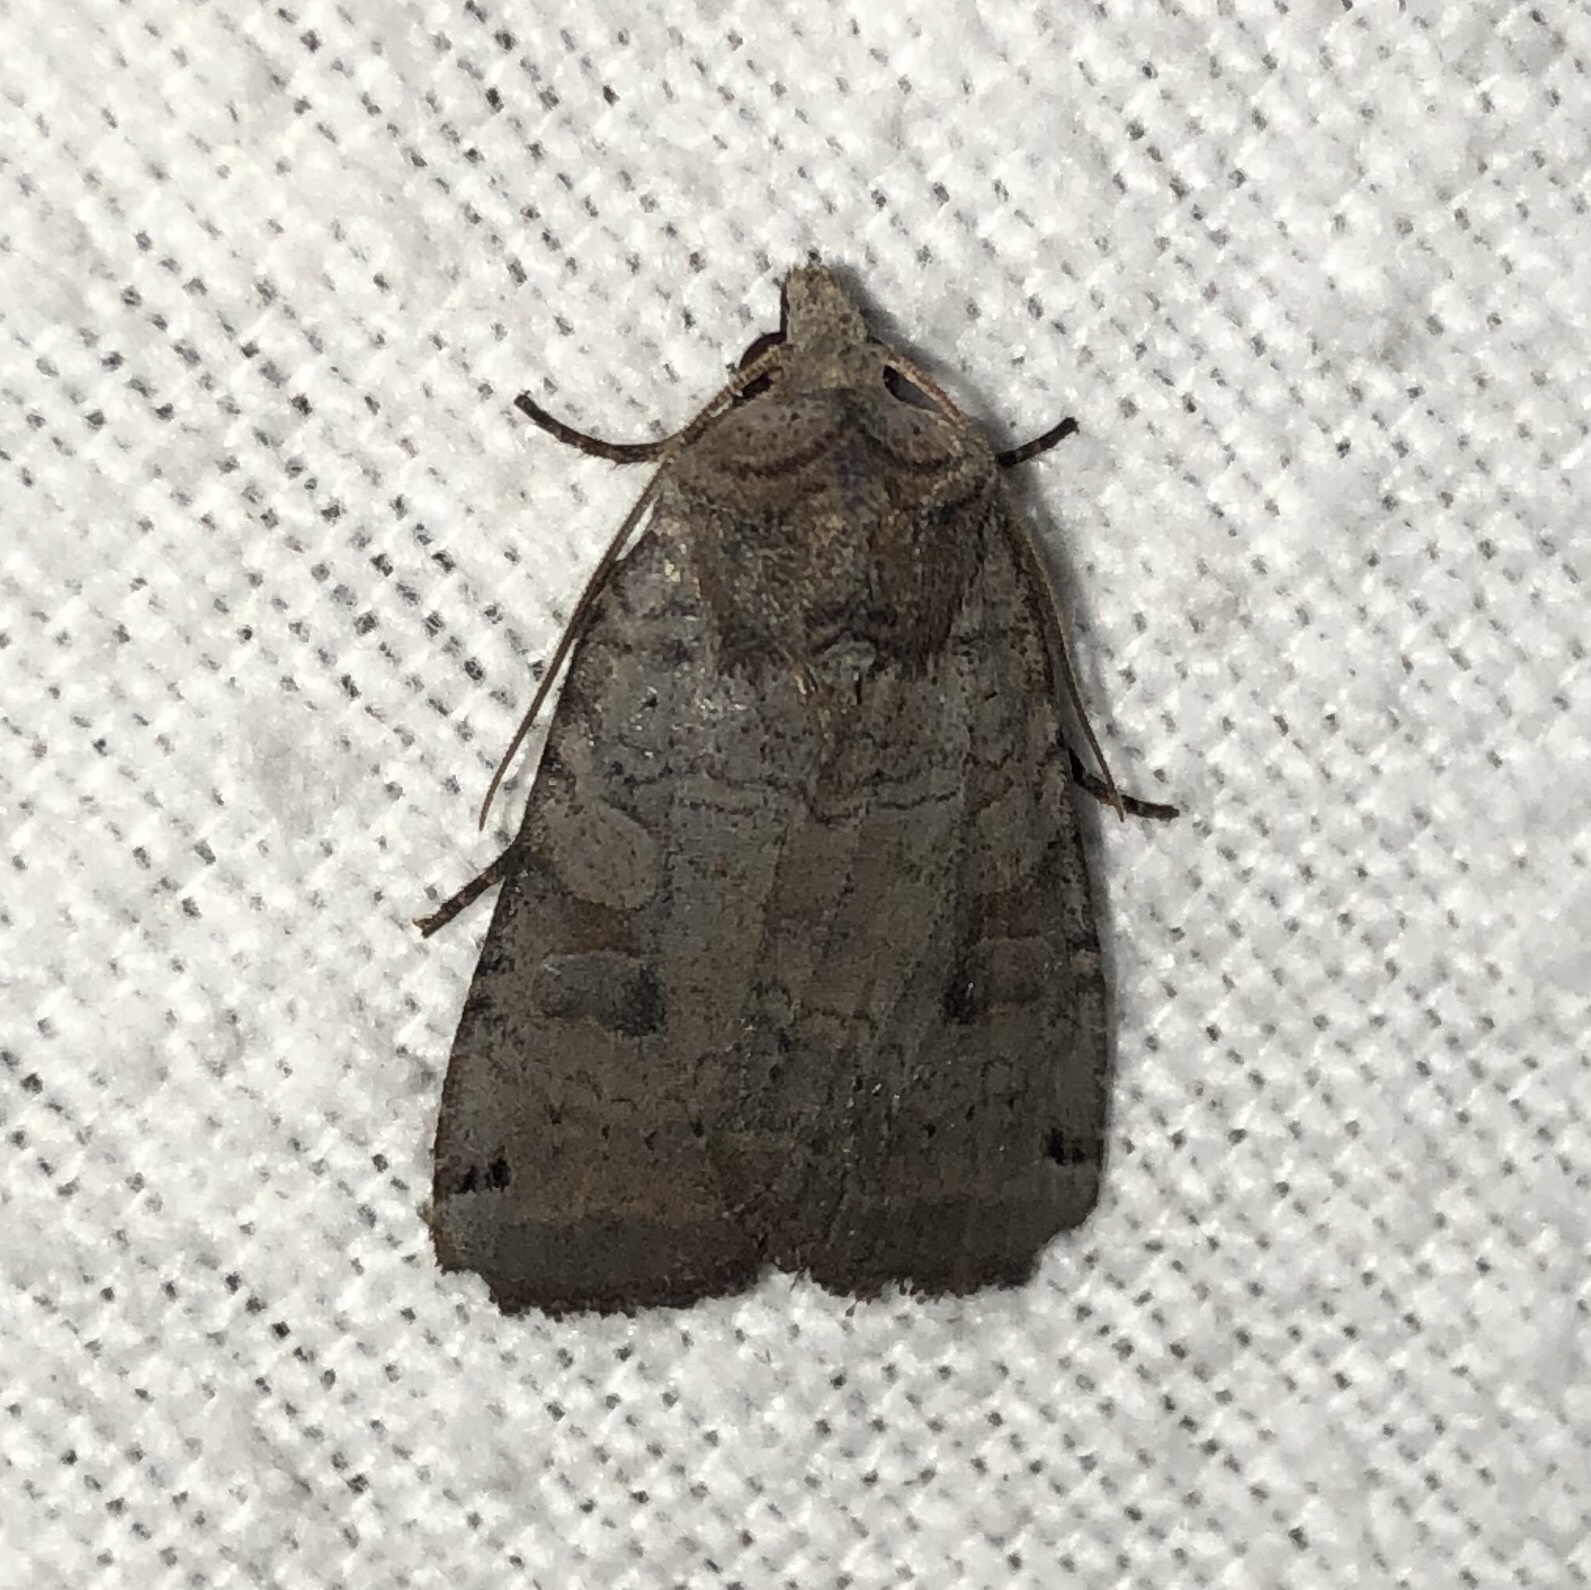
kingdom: Animalia
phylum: Arthropoda
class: Insecta
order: Lepidoptera
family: Noctuidae
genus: Xestia
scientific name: Xestia smithii
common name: Smith's dart
